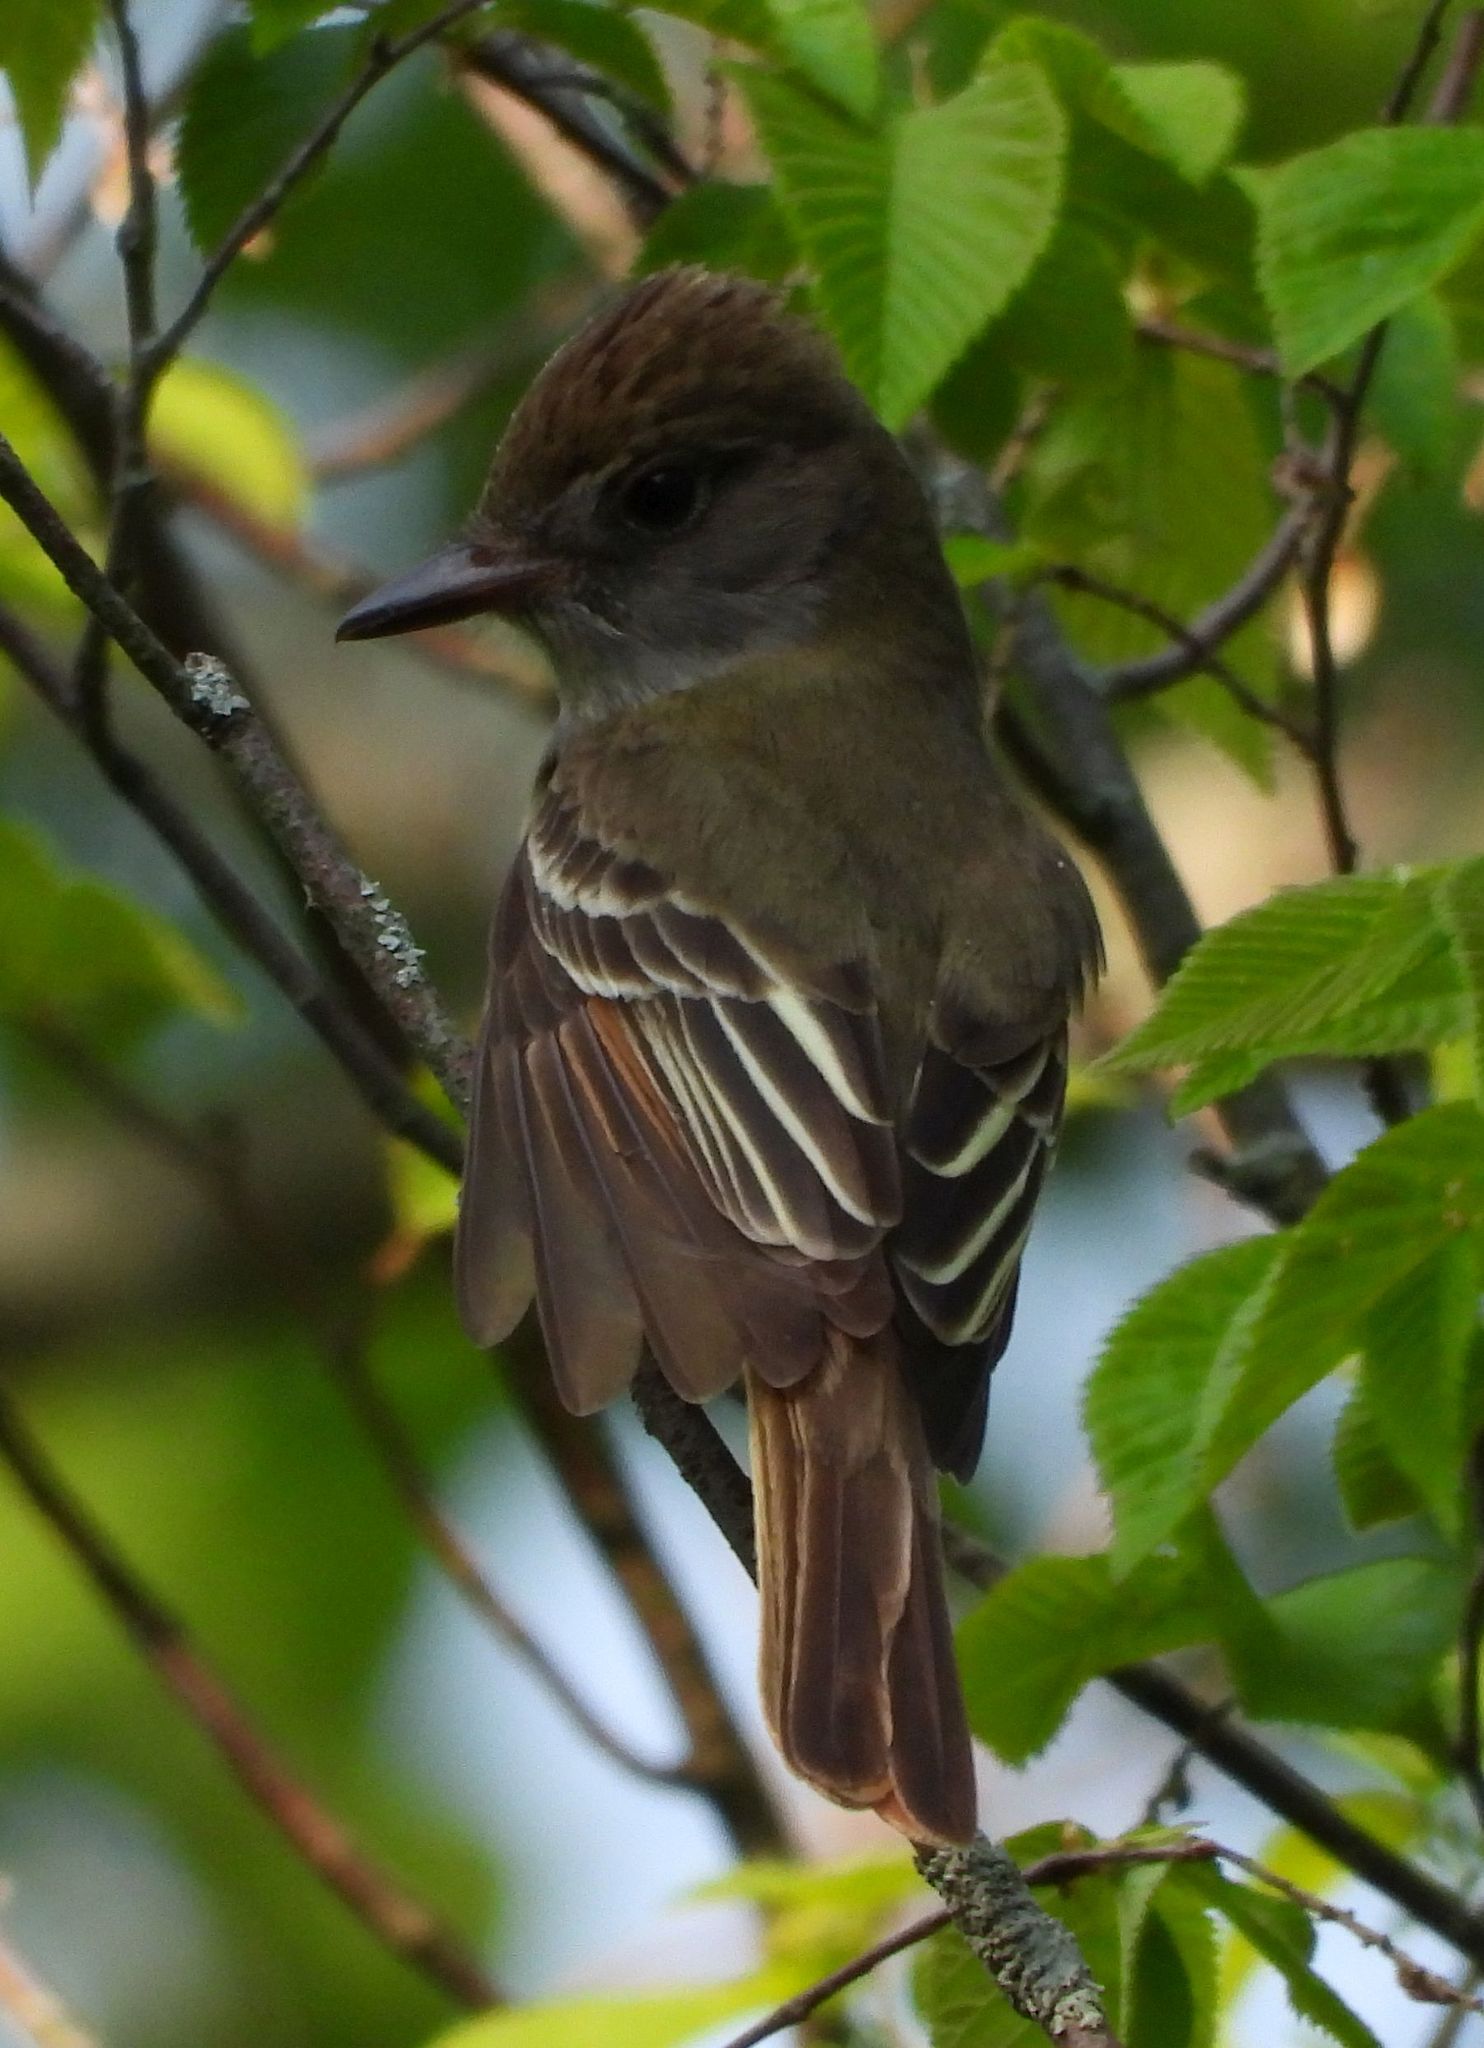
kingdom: Animalia
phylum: Chordata
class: Aves
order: Passeriformes
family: Tyrannidae
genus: Myiarchus
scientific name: Myiarchus crinitus
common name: Great crested flycatcher
